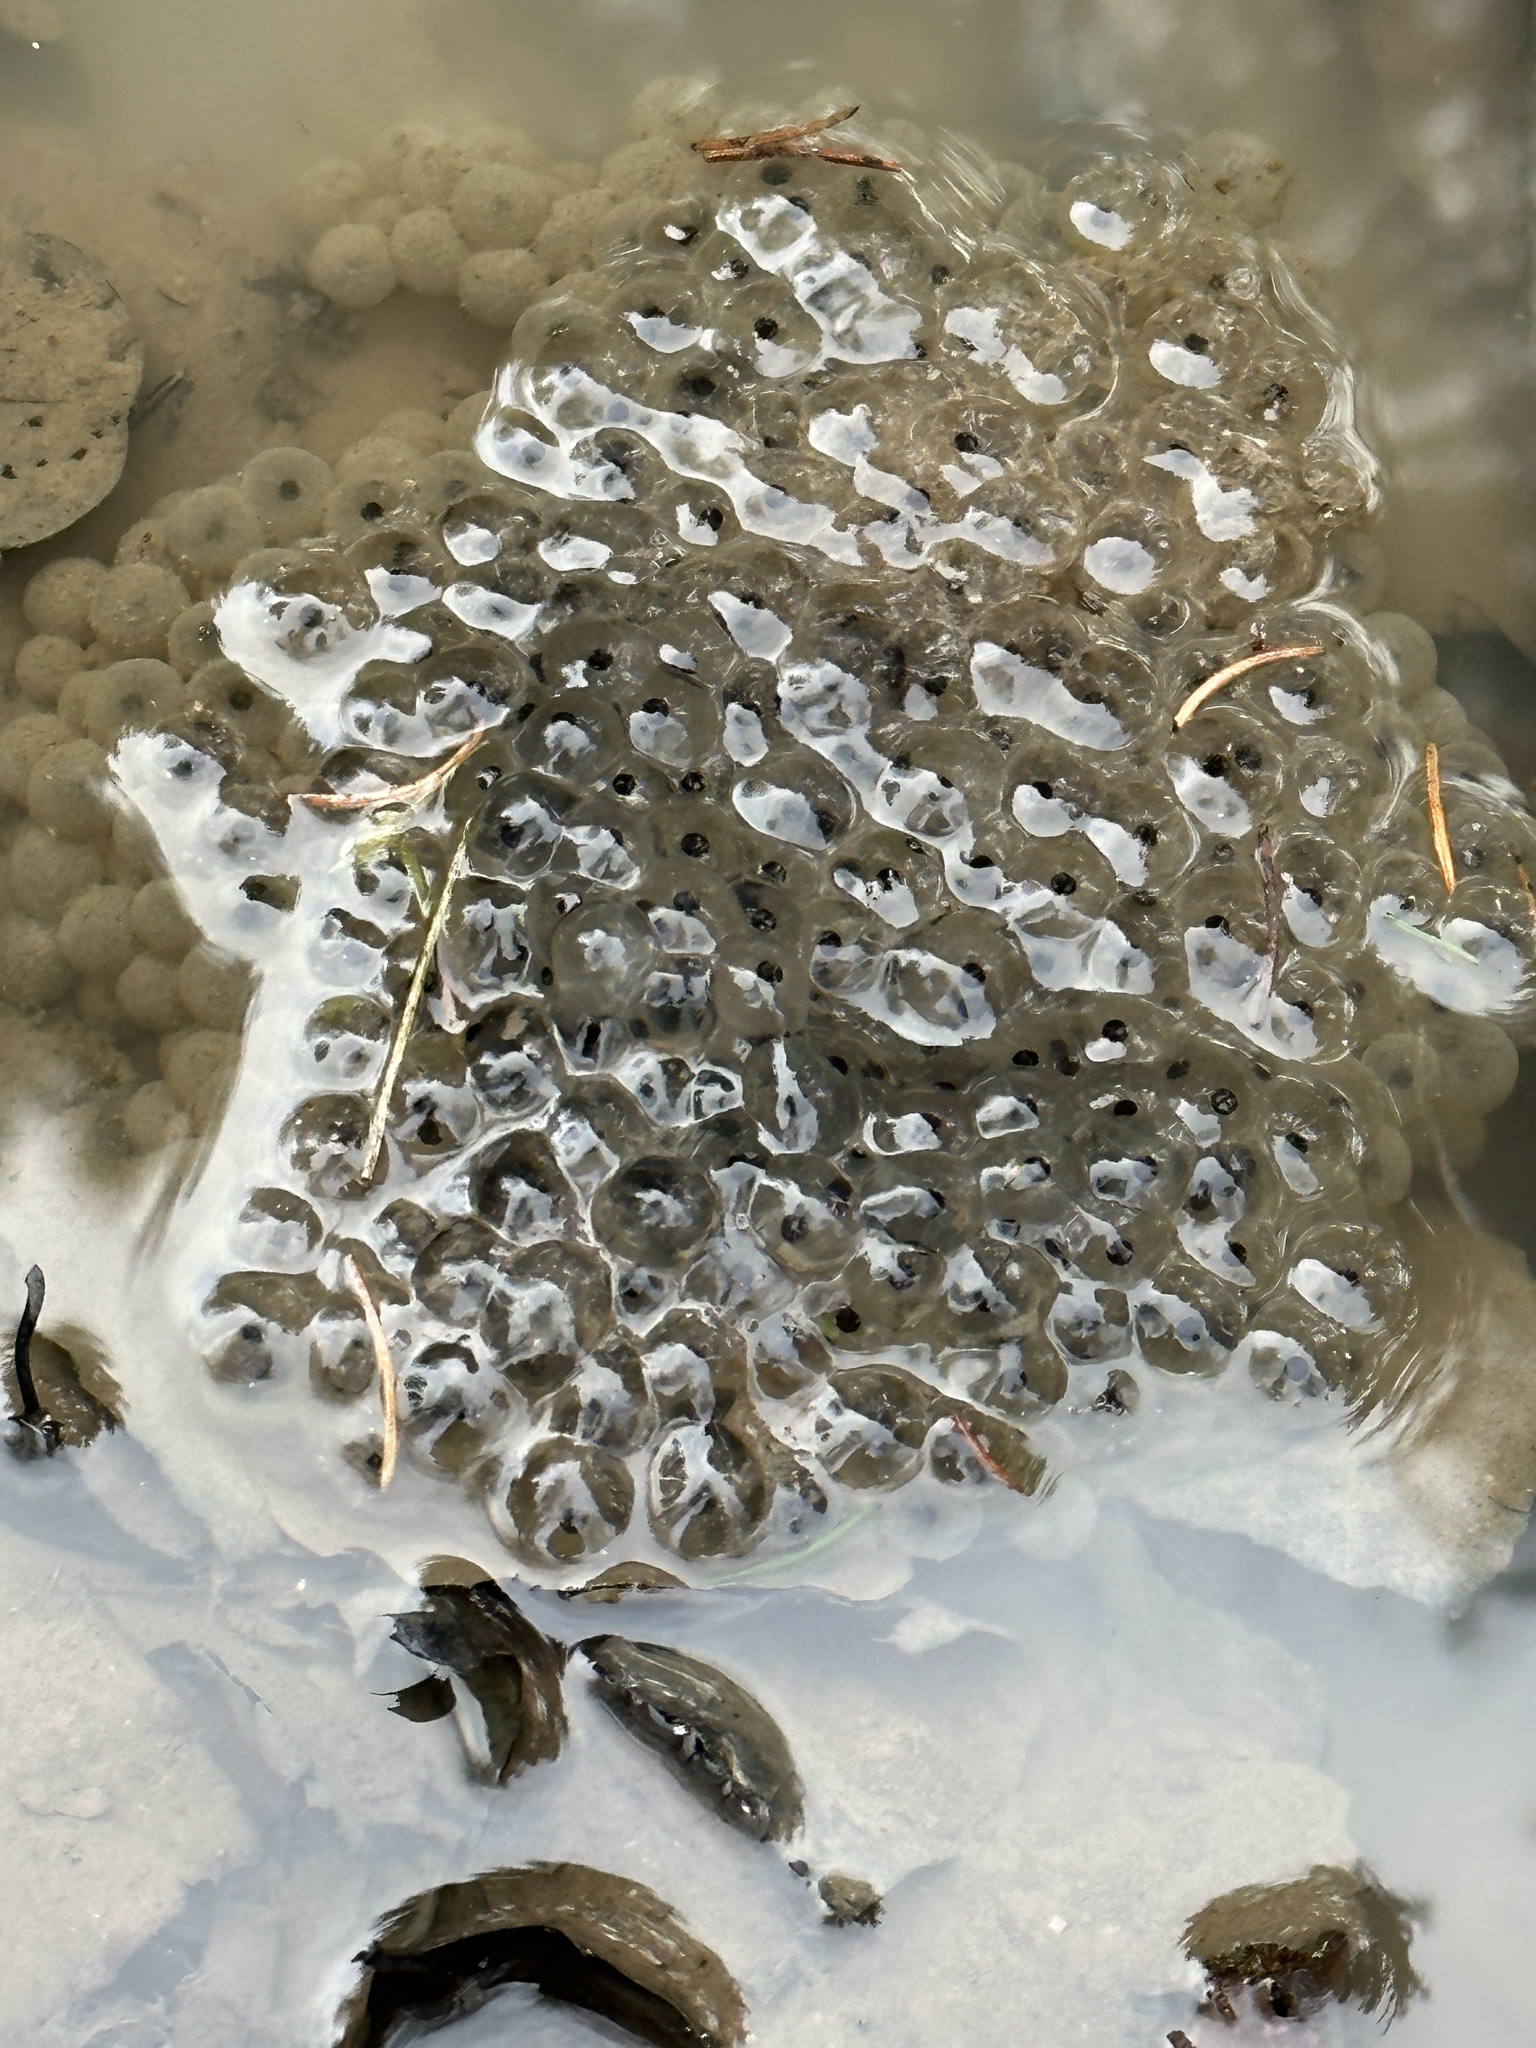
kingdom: Animalia
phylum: Chordata
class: Amphibia
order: Anura
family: Ranidae
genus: Rana
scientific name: Rana temporaria
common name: Common frog
